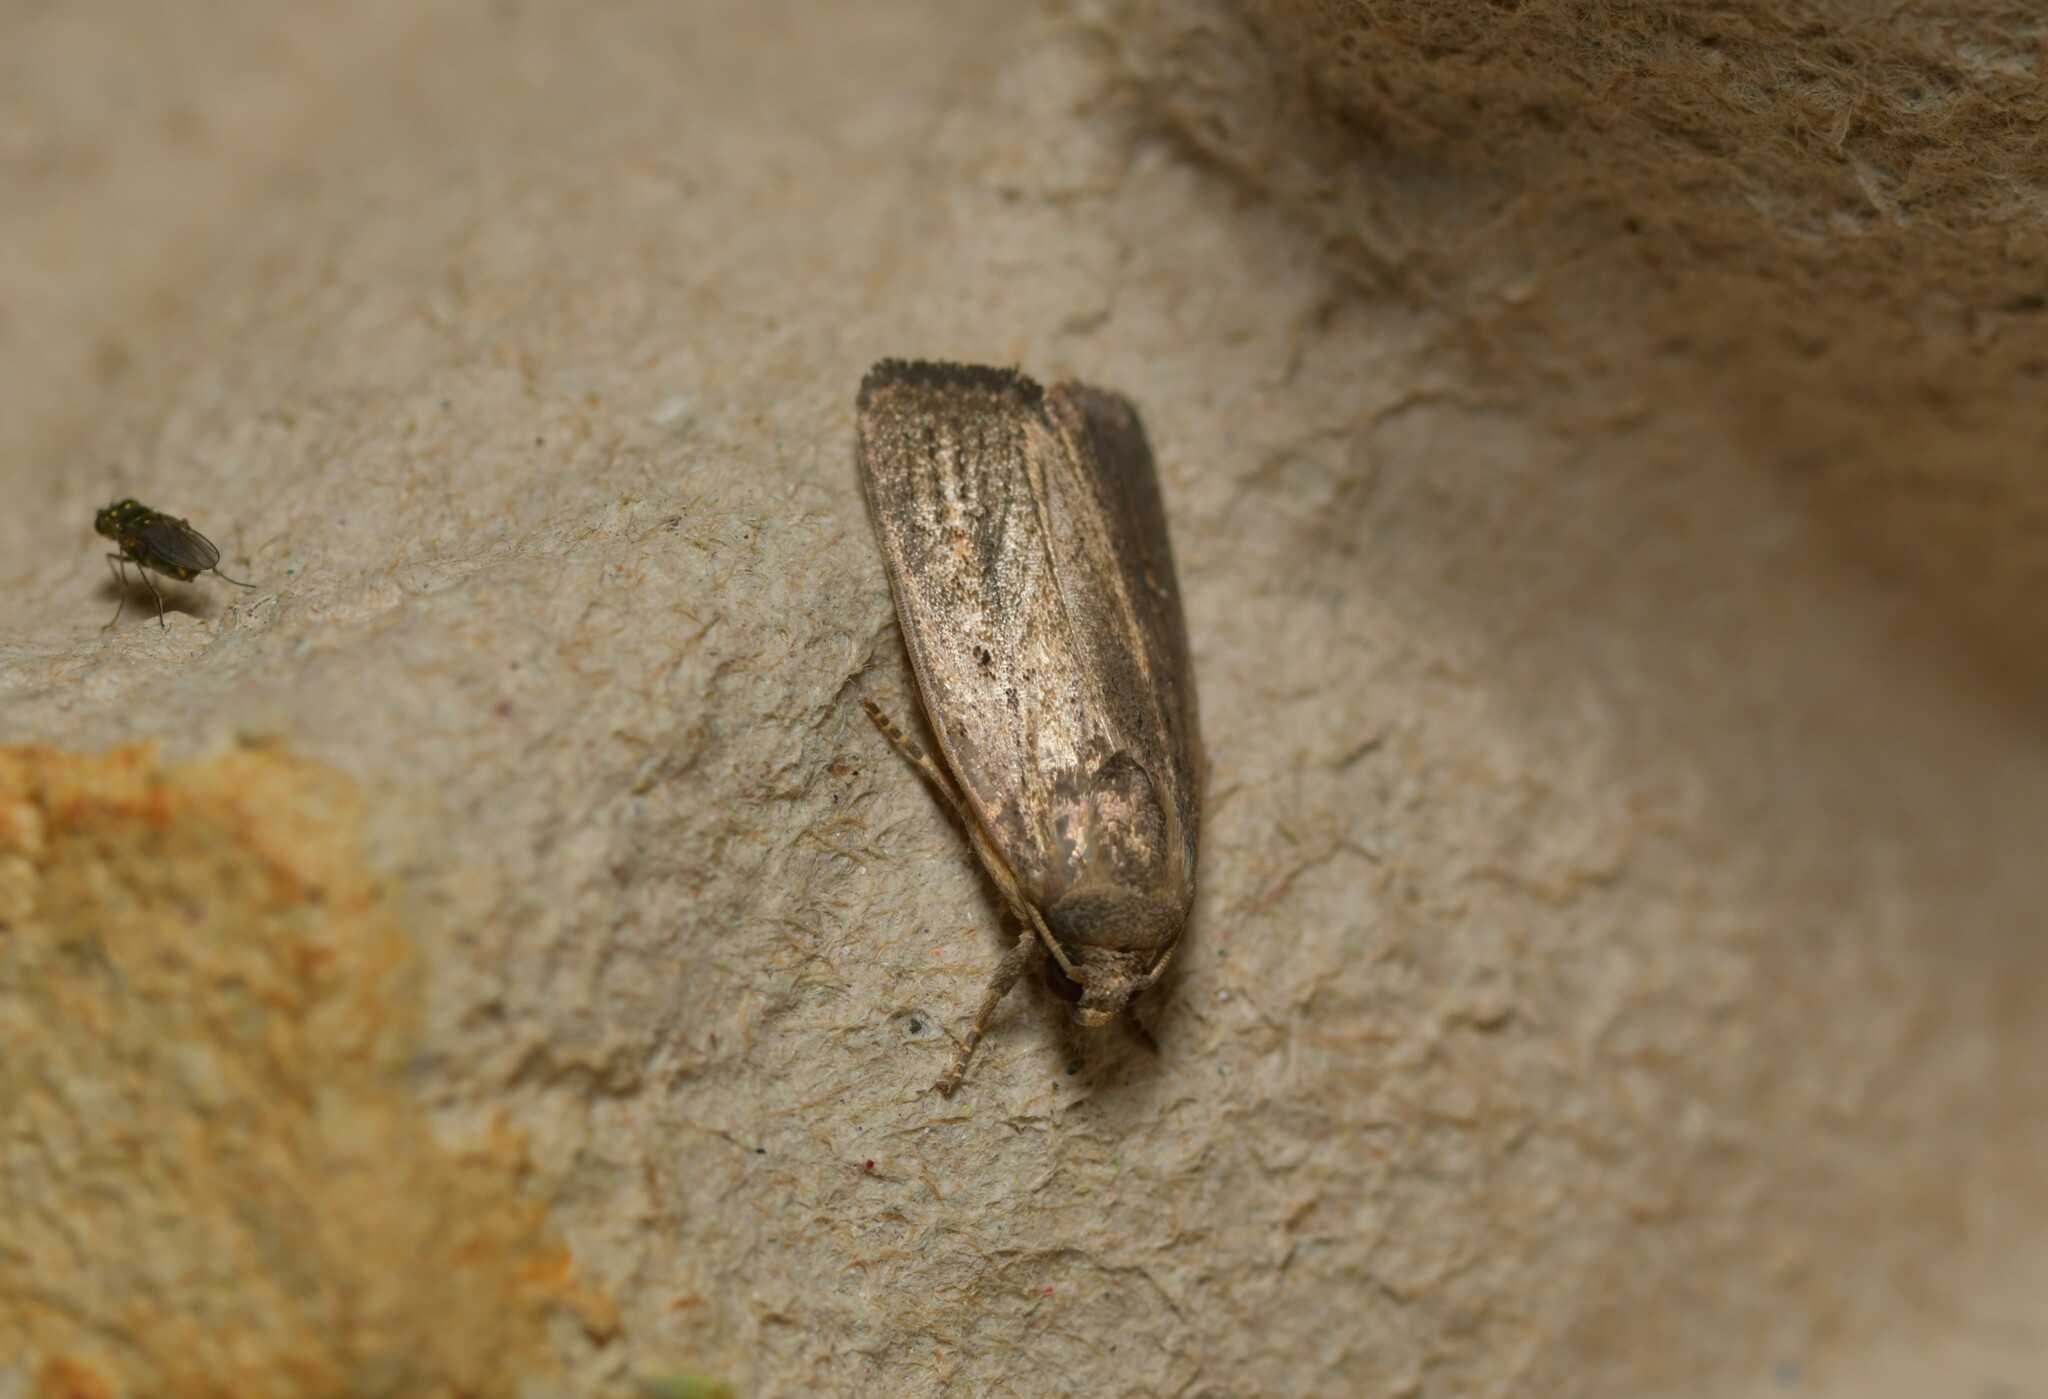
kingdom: Animalia
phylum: Arthropoda
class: Insecta
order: Lepidoptera
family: Noctuidae
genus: Athetis
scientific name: Athetis hospes
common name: Porter's rustic
